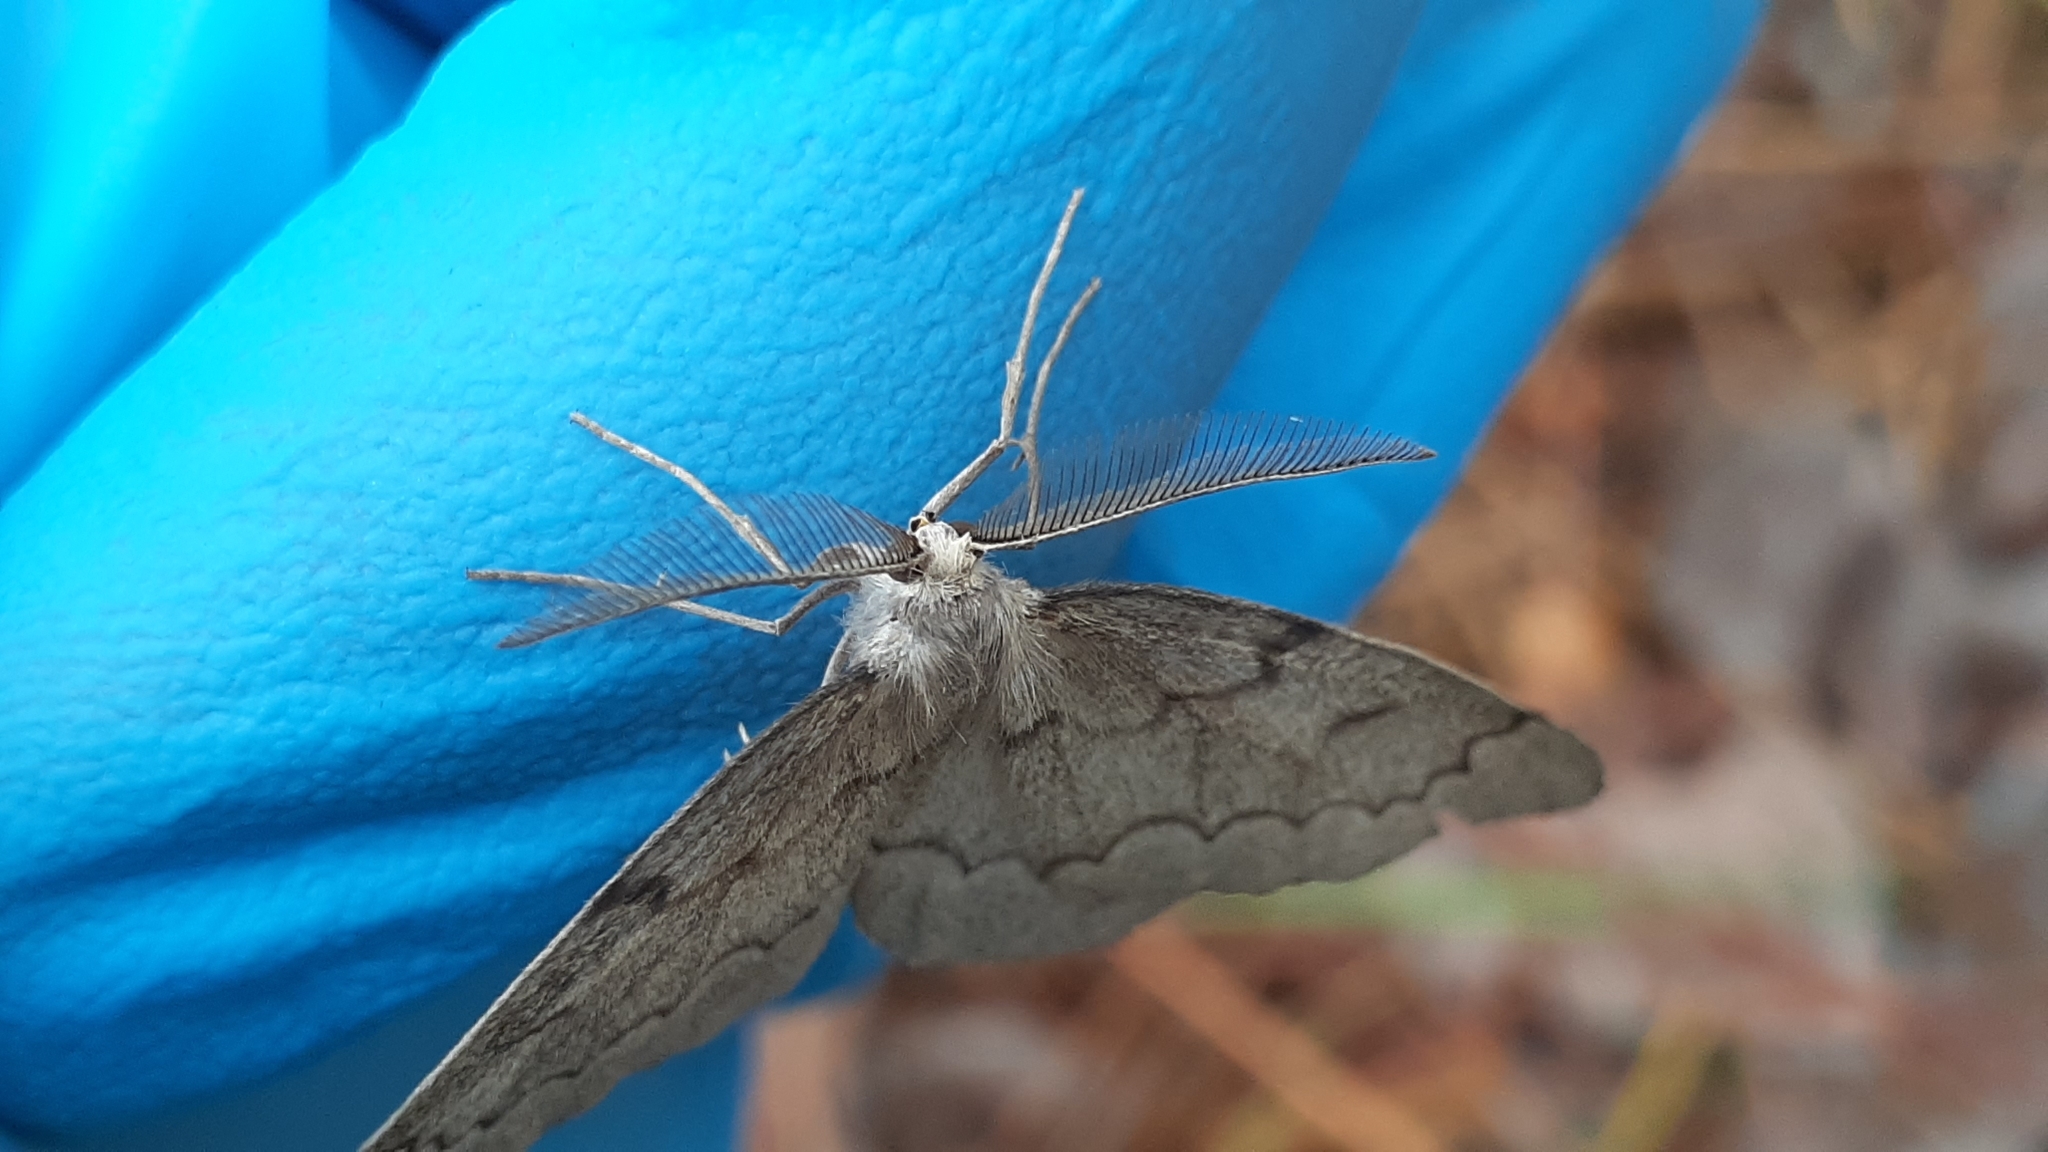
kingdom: Animalia
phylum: Arthropoda
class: Insecta
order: Lepidoptera
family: Geometridae
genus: Nepytia
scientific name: Nepytia pellucidaria
